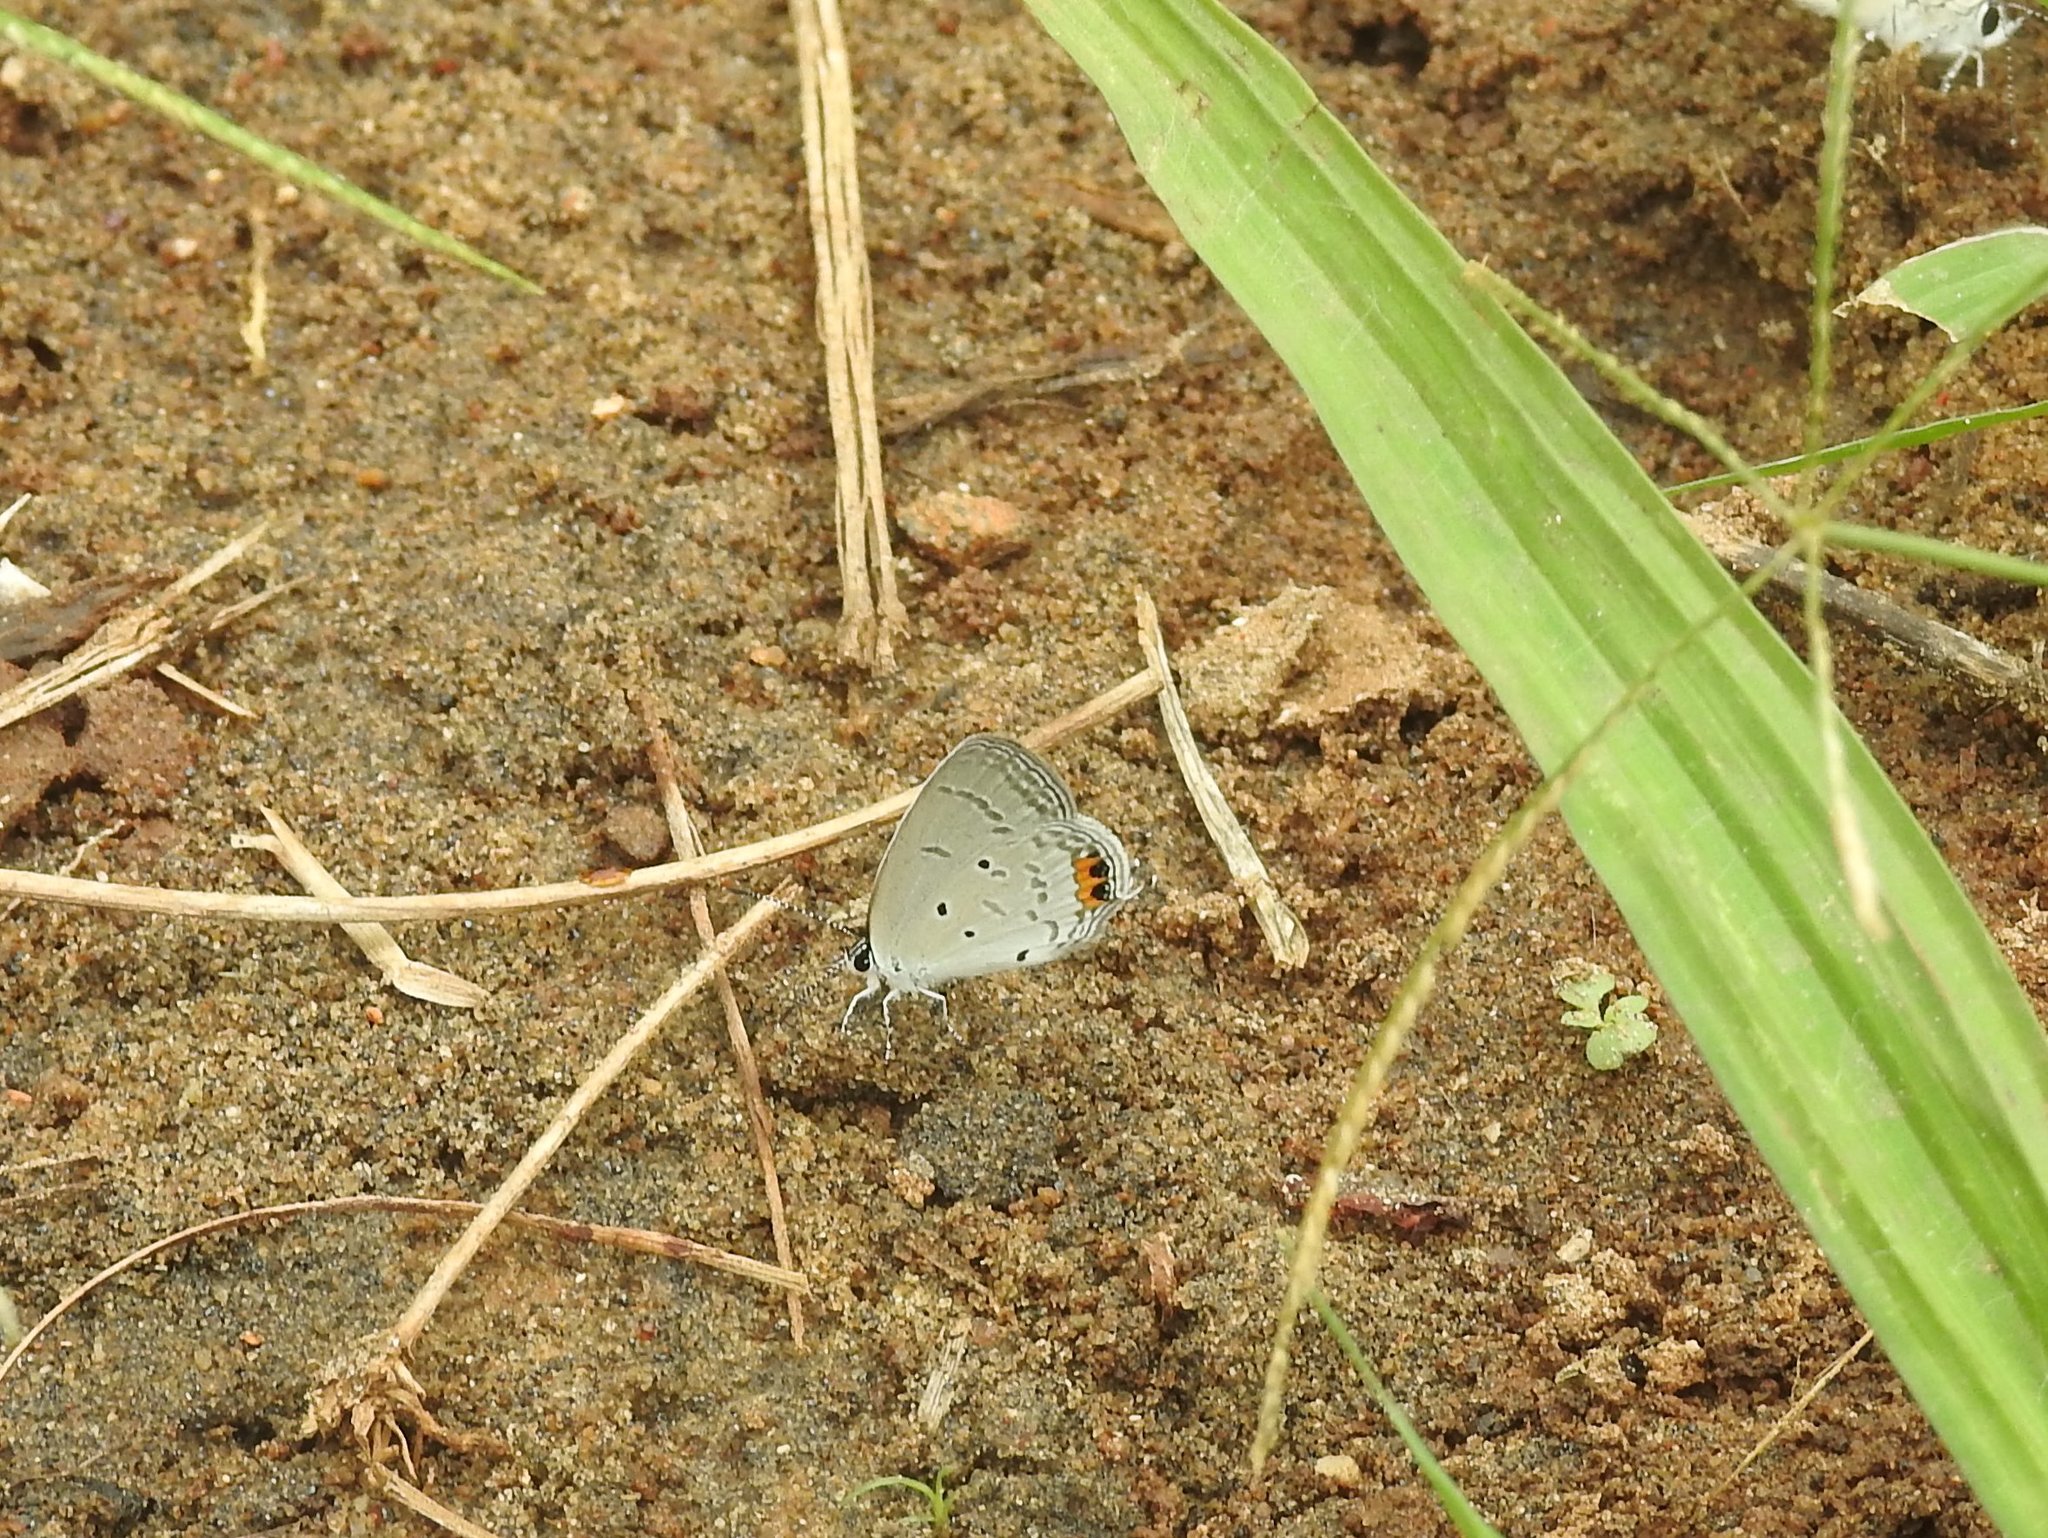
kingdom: Animalia
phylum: Arthropoda
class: Insecta
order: Lepidoptera
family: Lycaenidae
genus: Everes
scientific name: Everes lacturnus
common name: Orange-tipped pea-blue
